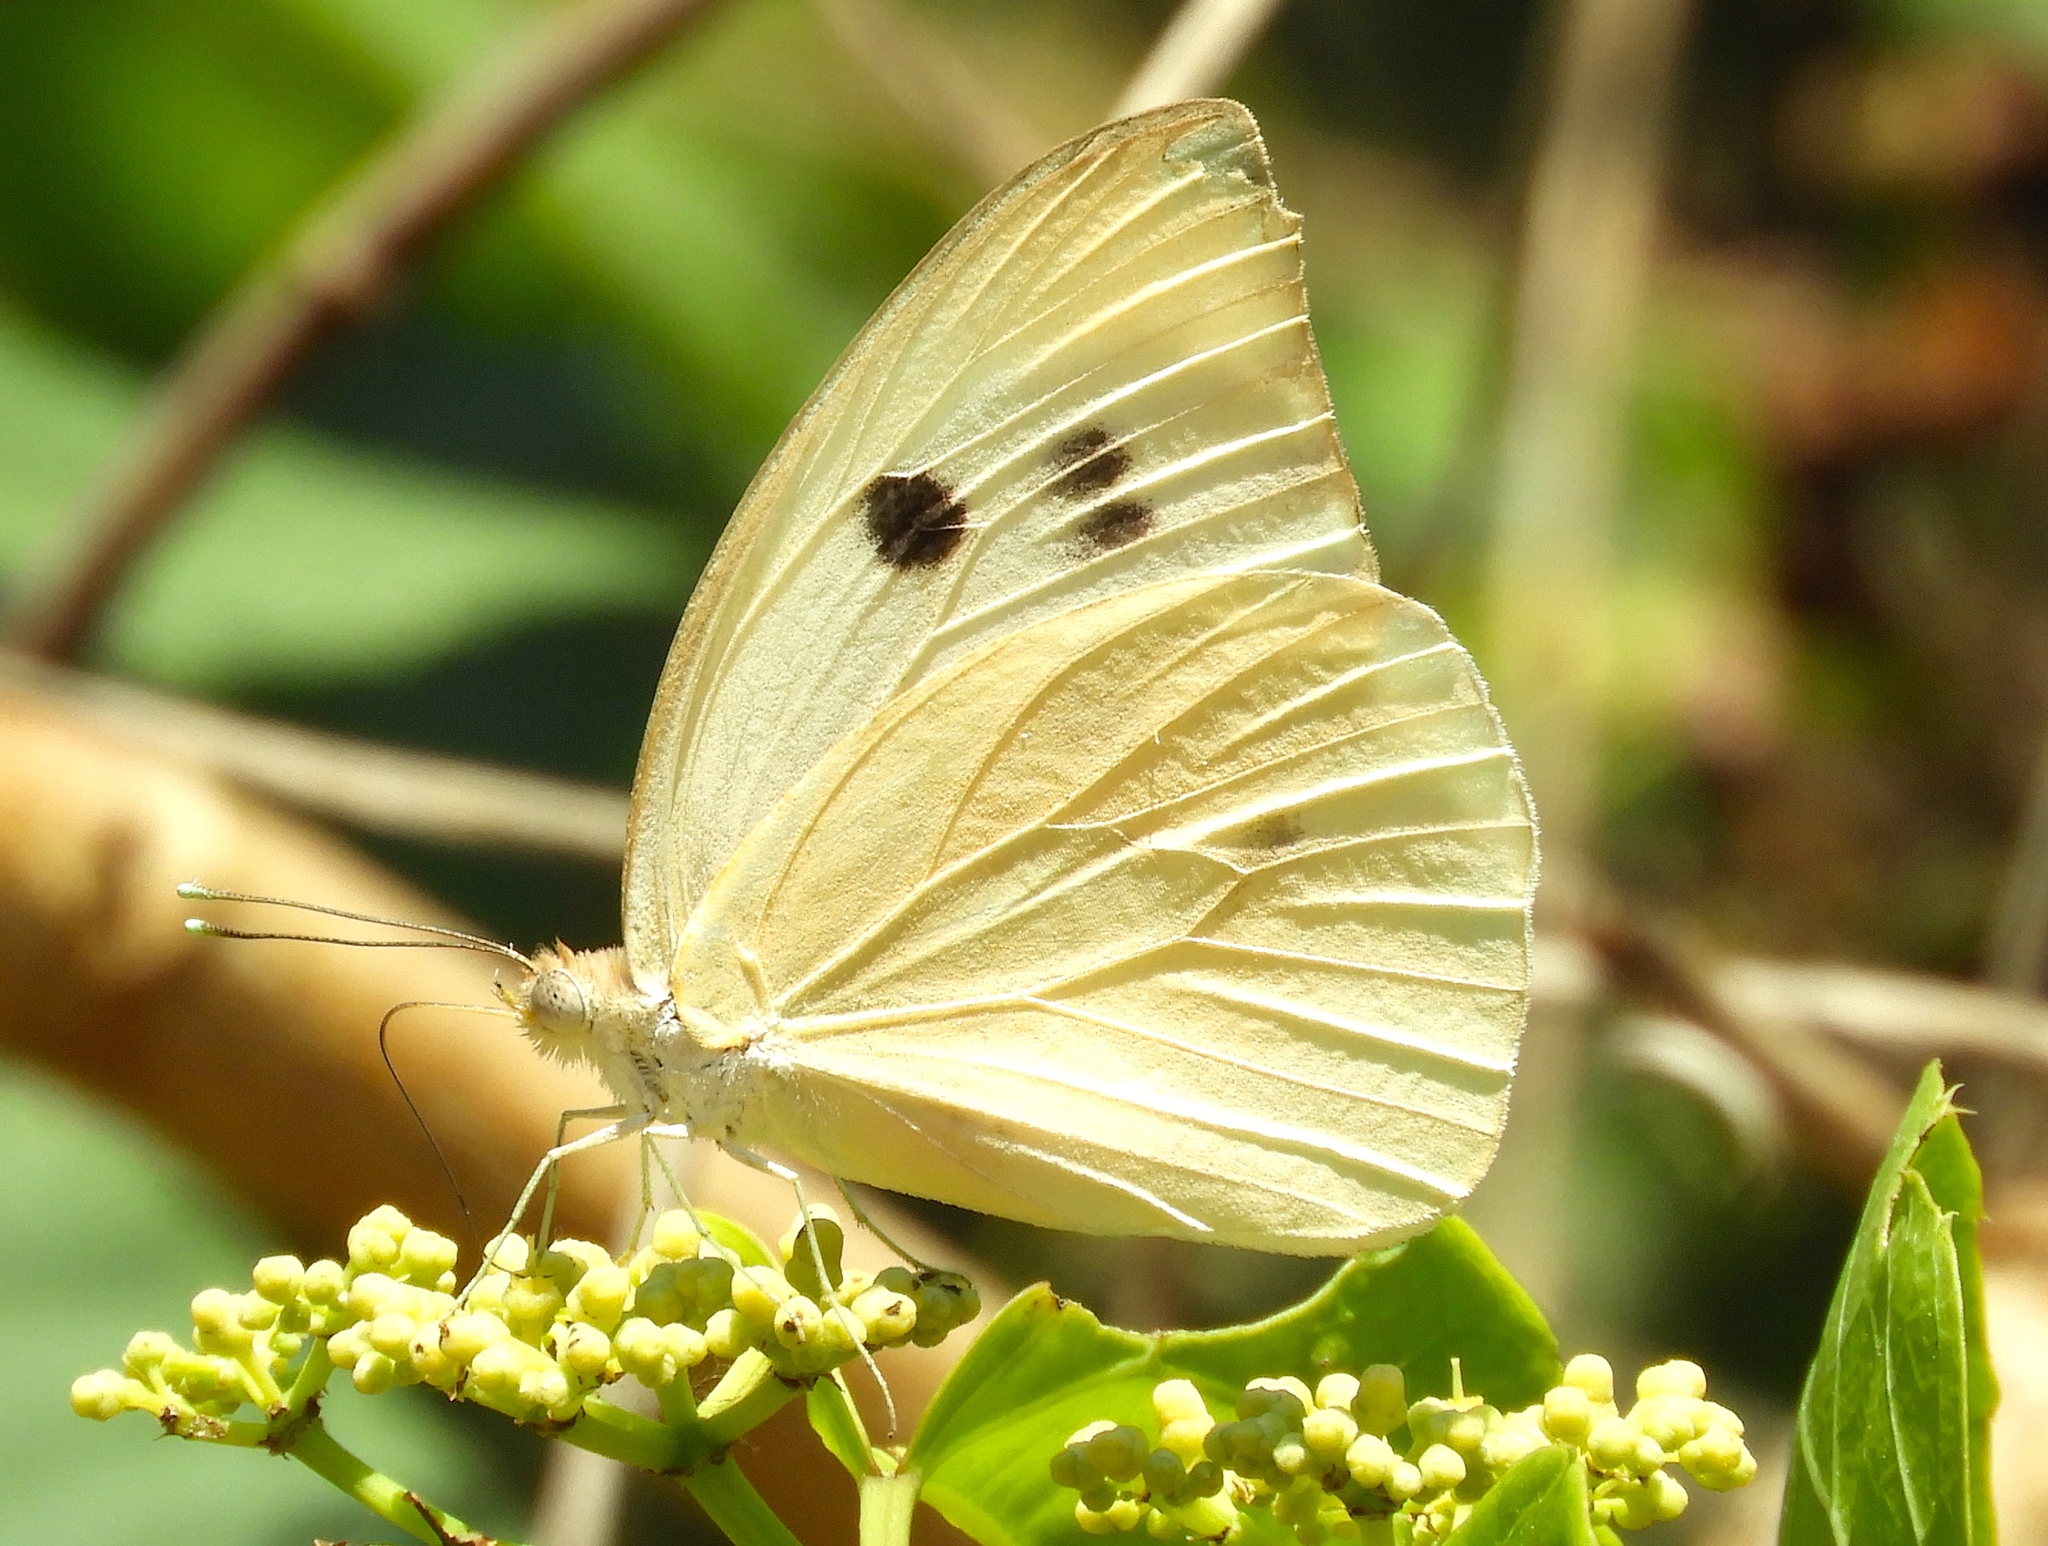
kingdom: Animalia
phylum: Arthropoda
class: Insecta
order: Lepidoptera
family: Pieridae
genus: Ganyra
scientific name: Ganyra josephina
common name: Giant white
